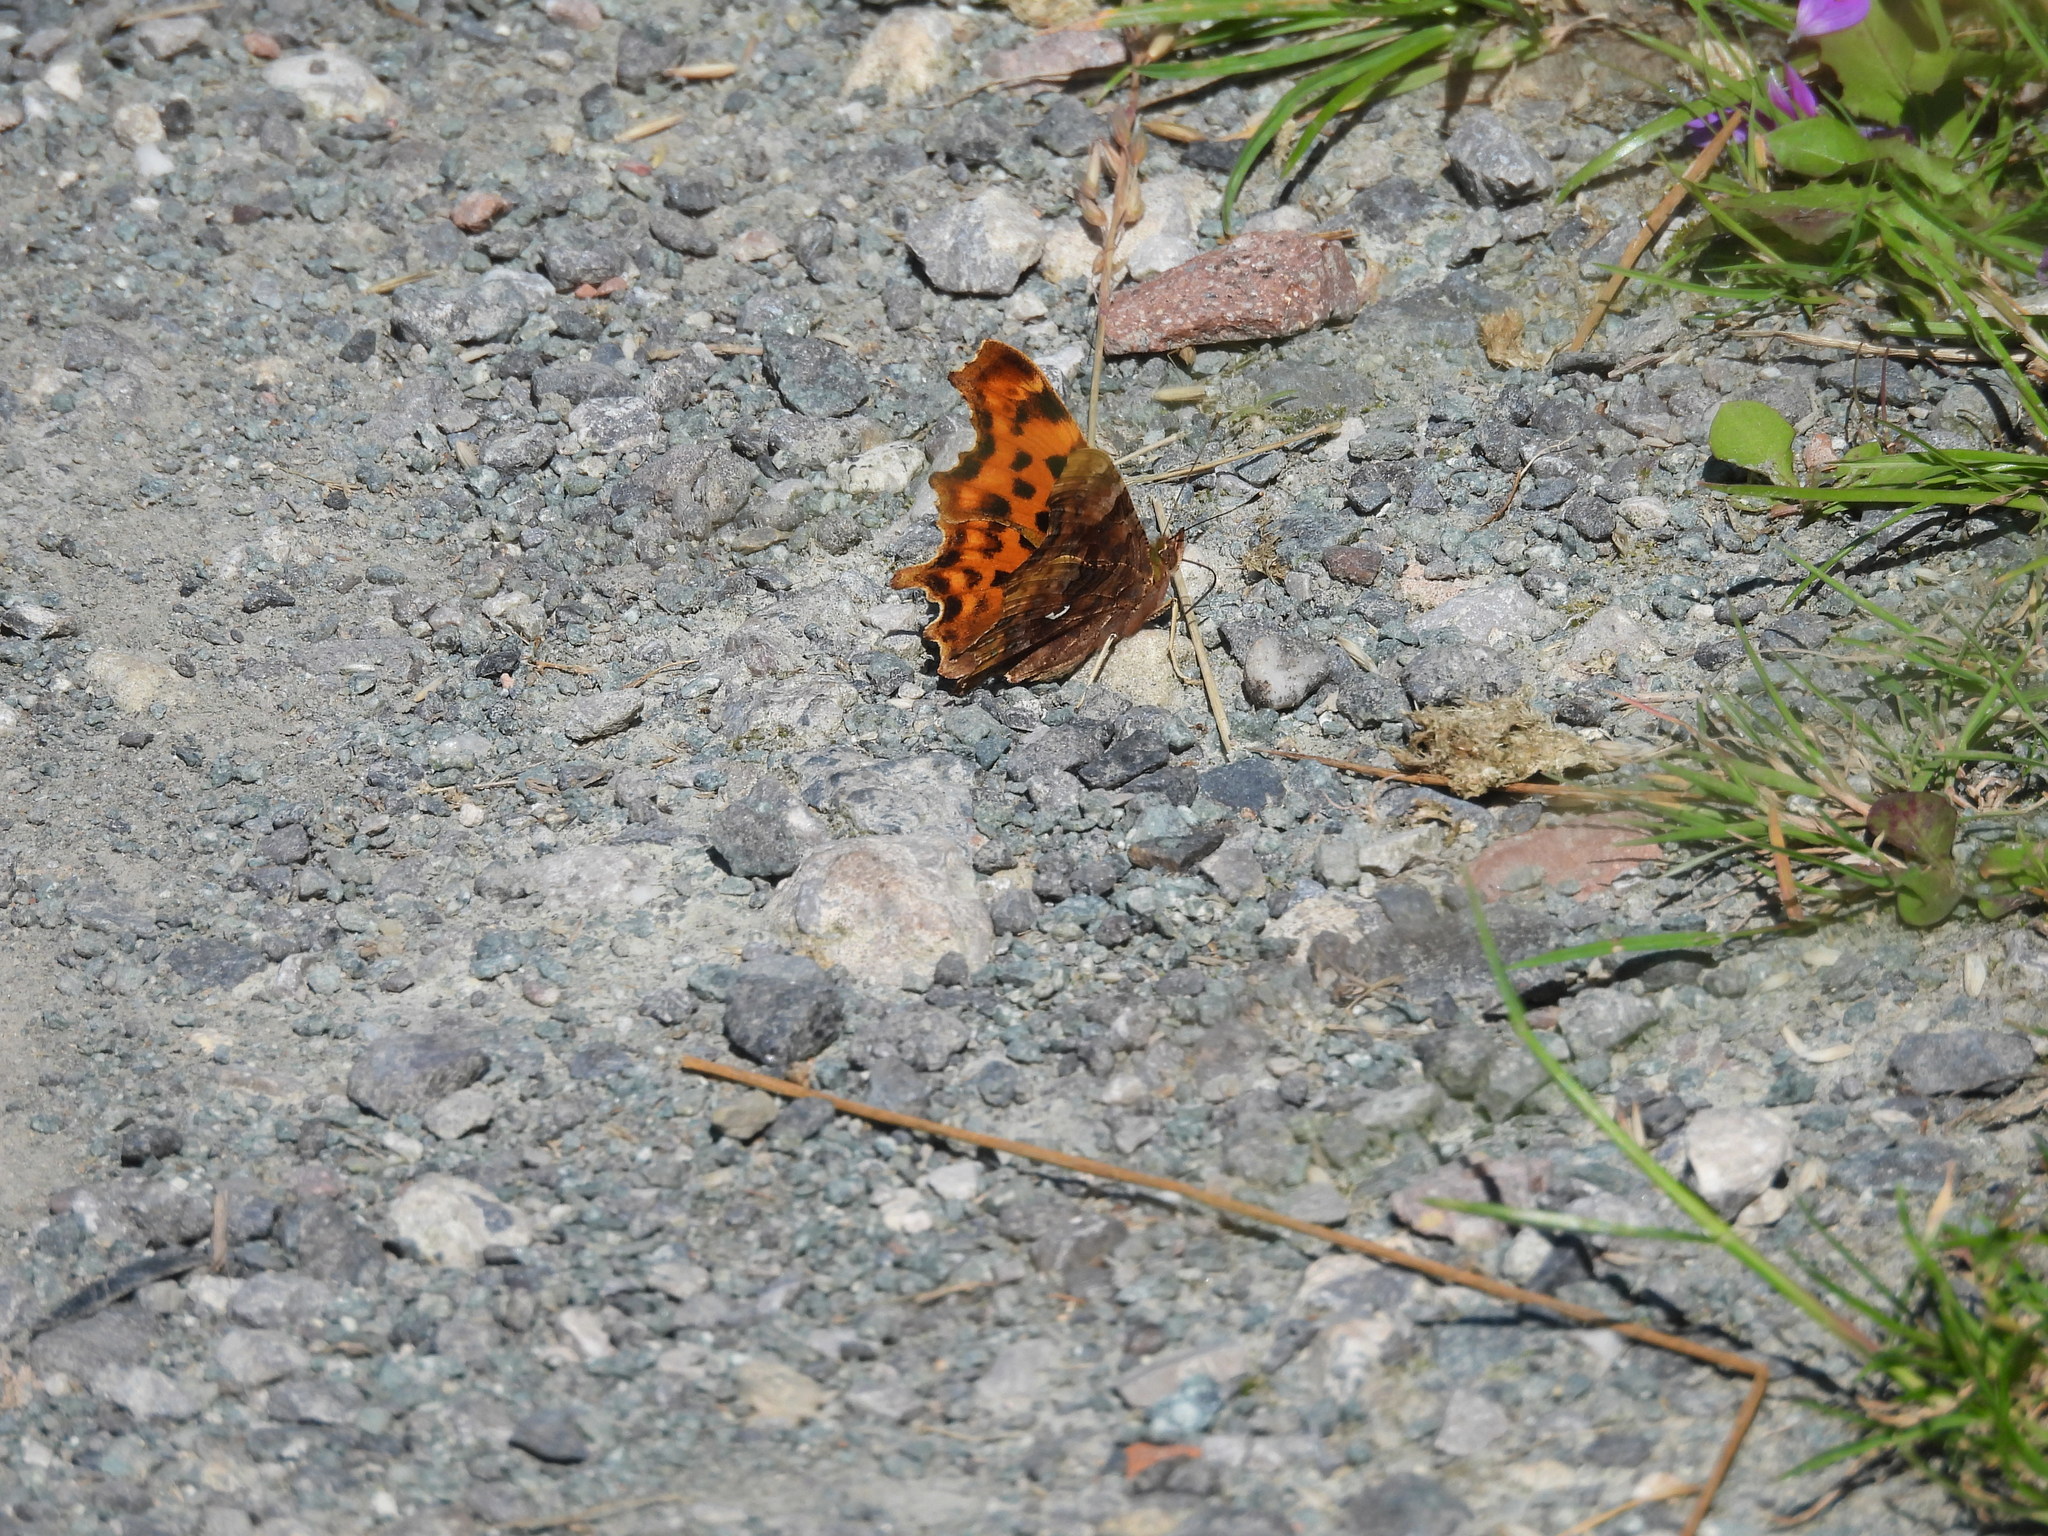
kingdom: Animalia
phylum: Arthropoda
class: Insecta
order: Lepidoptera
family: Nymphalidae
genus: Polygonia
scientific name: Polygonia c-album
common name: Comma
